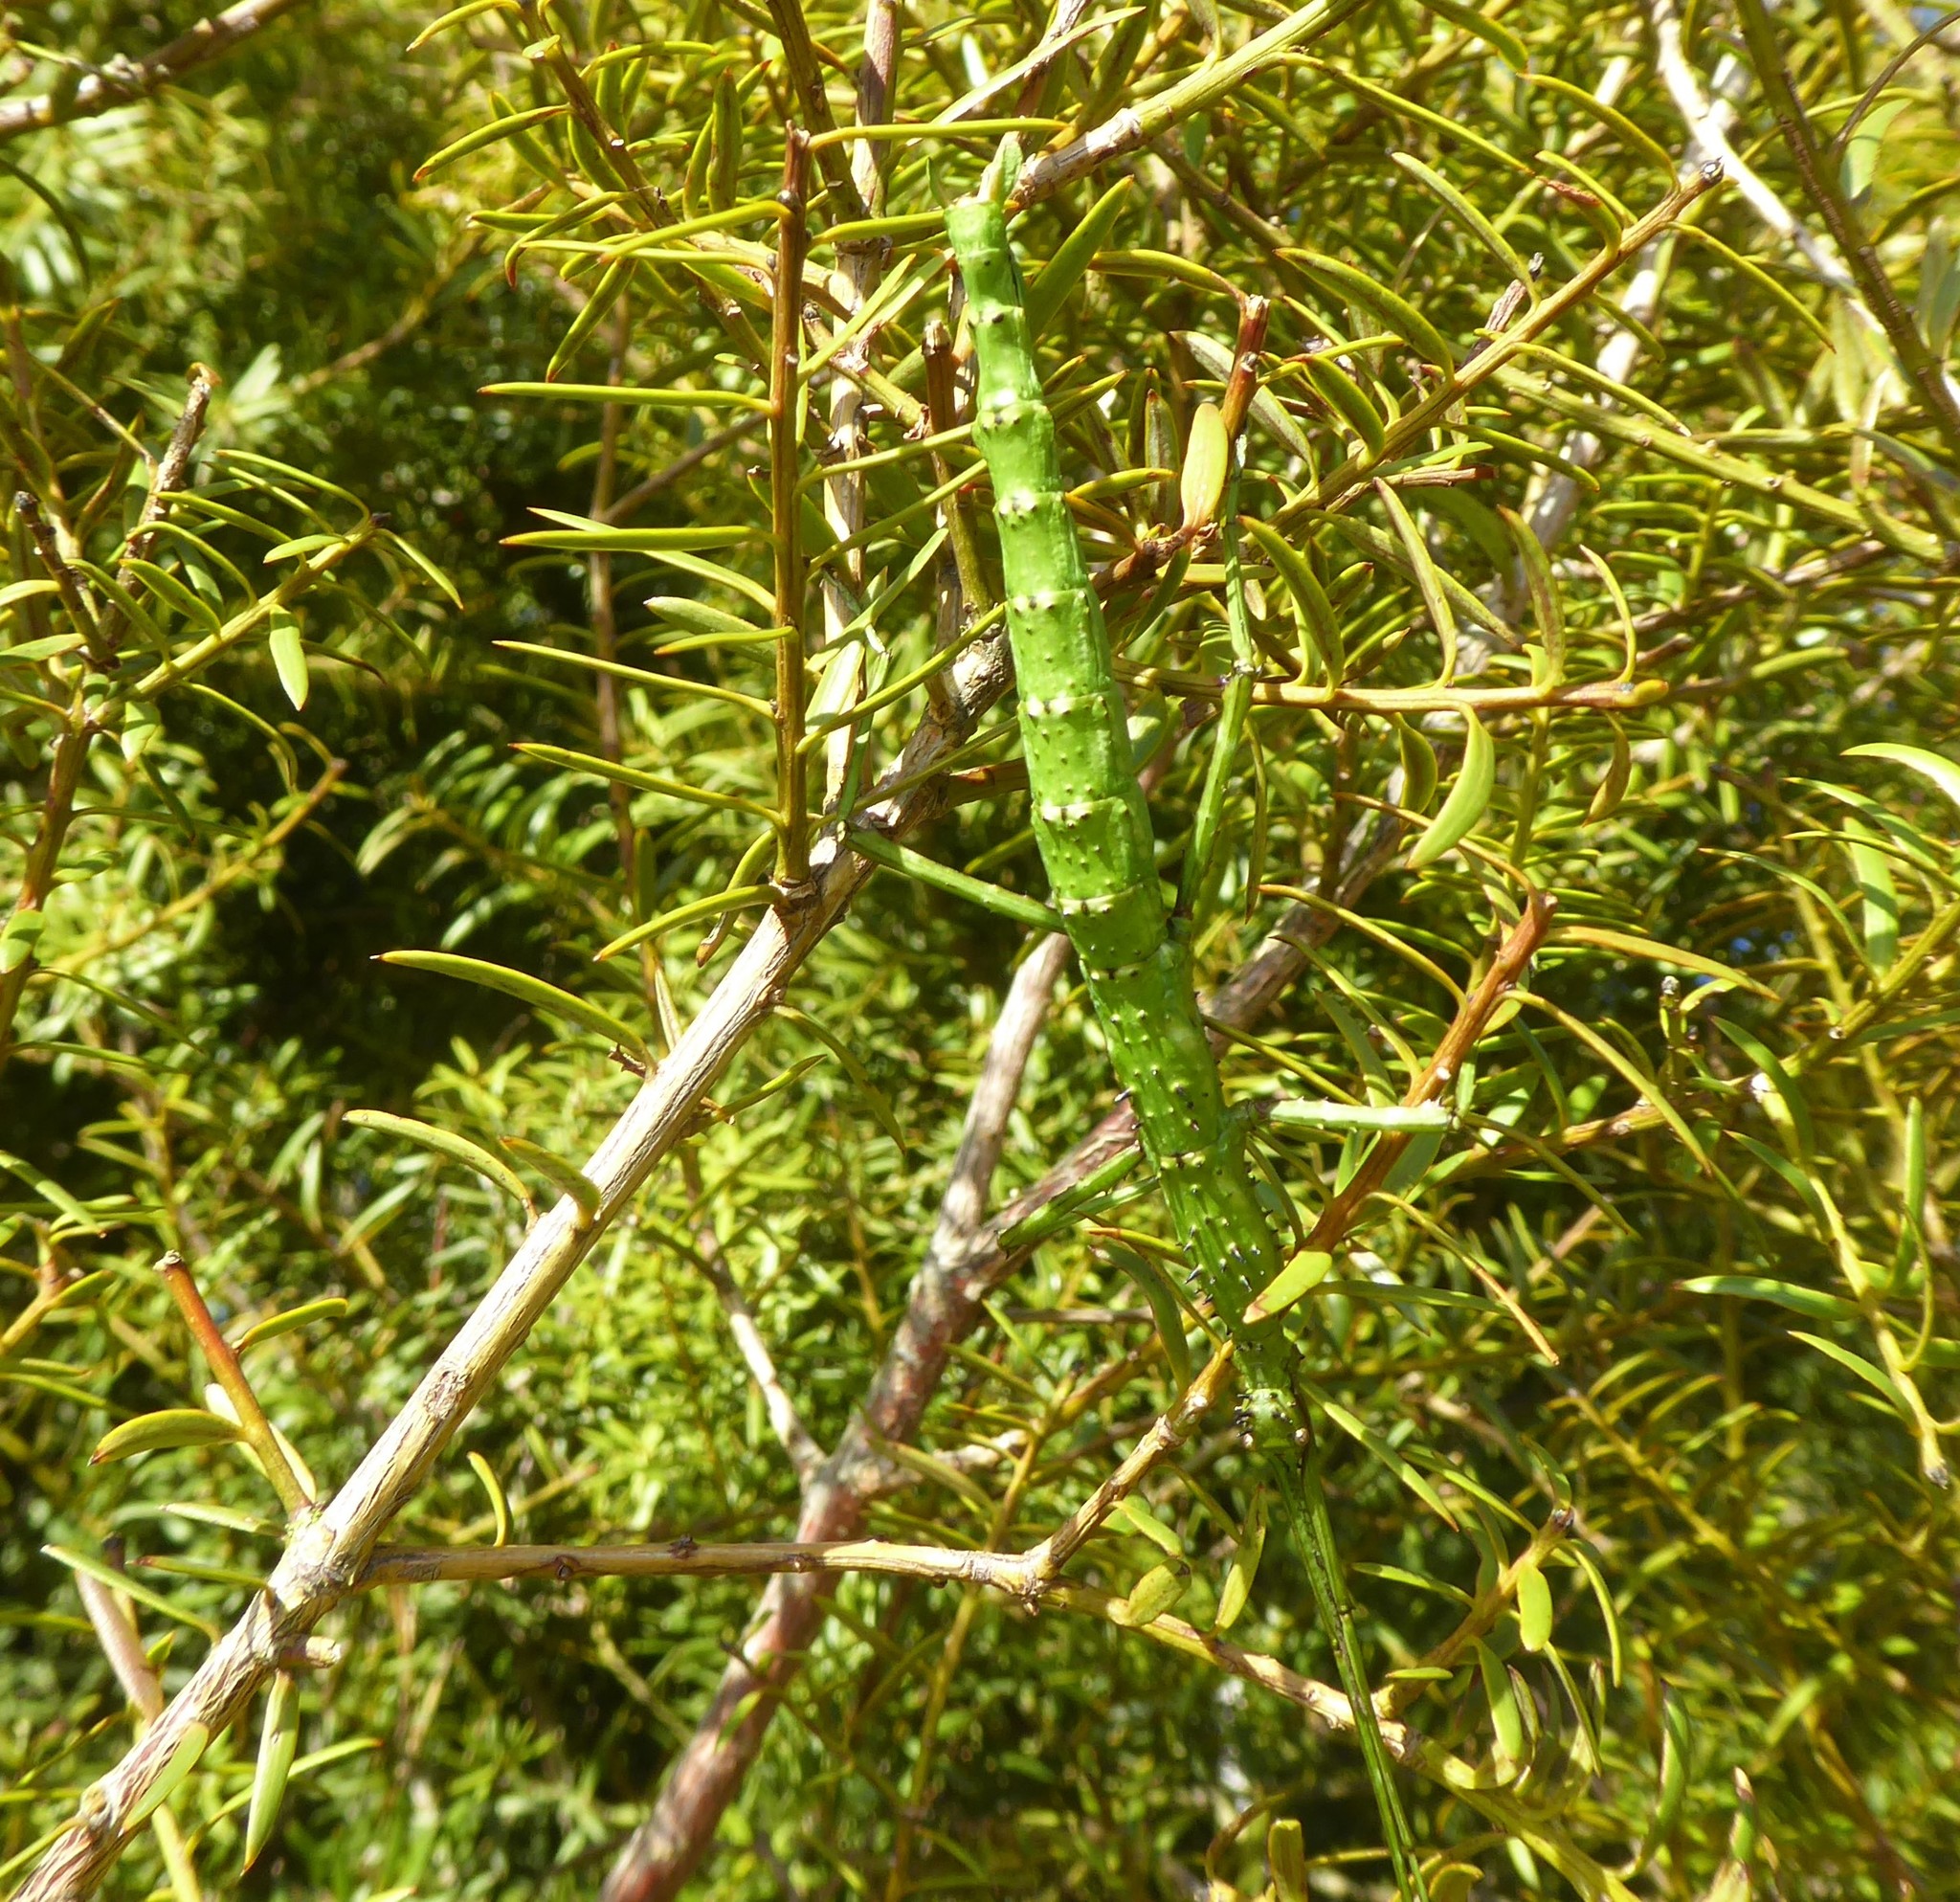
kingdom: Animalia
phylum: Arthropoda
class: Insecta
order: Phasmida
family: Phasmatidae
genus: Acanthoxyla
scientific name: Acanthoxyla geisovii
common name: Prickly stick insect
